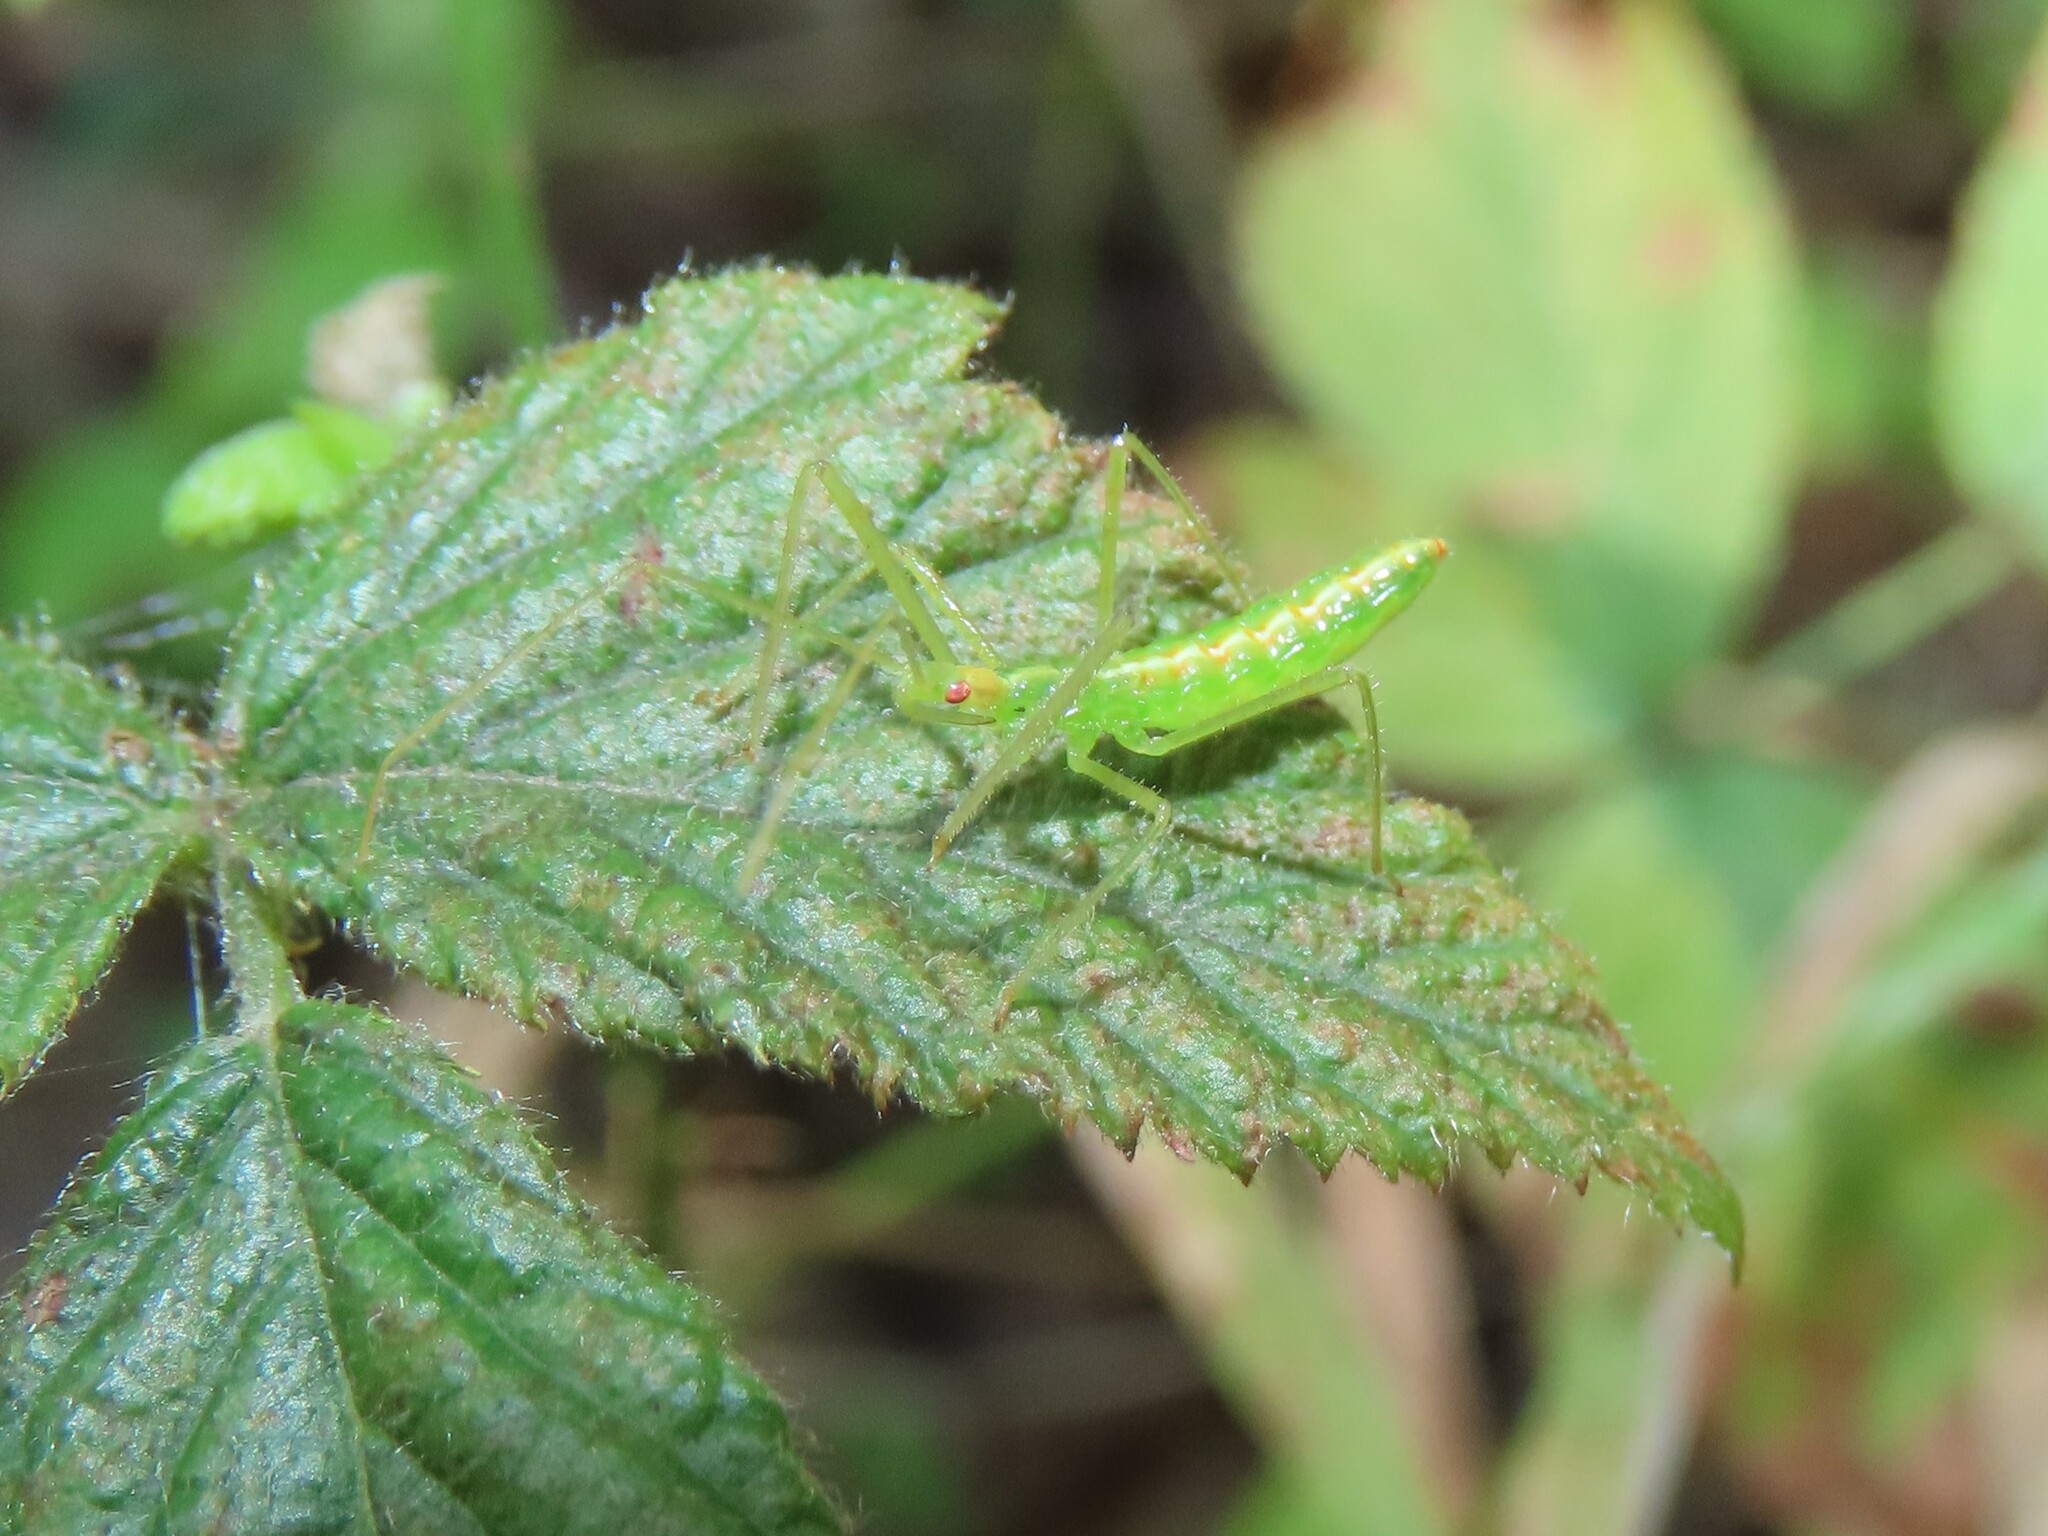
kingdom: Animalia
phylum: Arthropoda
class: Insecta
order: Hemiptera
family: Reduviidae
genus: Zelus
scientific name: Zelus luridus
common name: Pale green assassin bug
